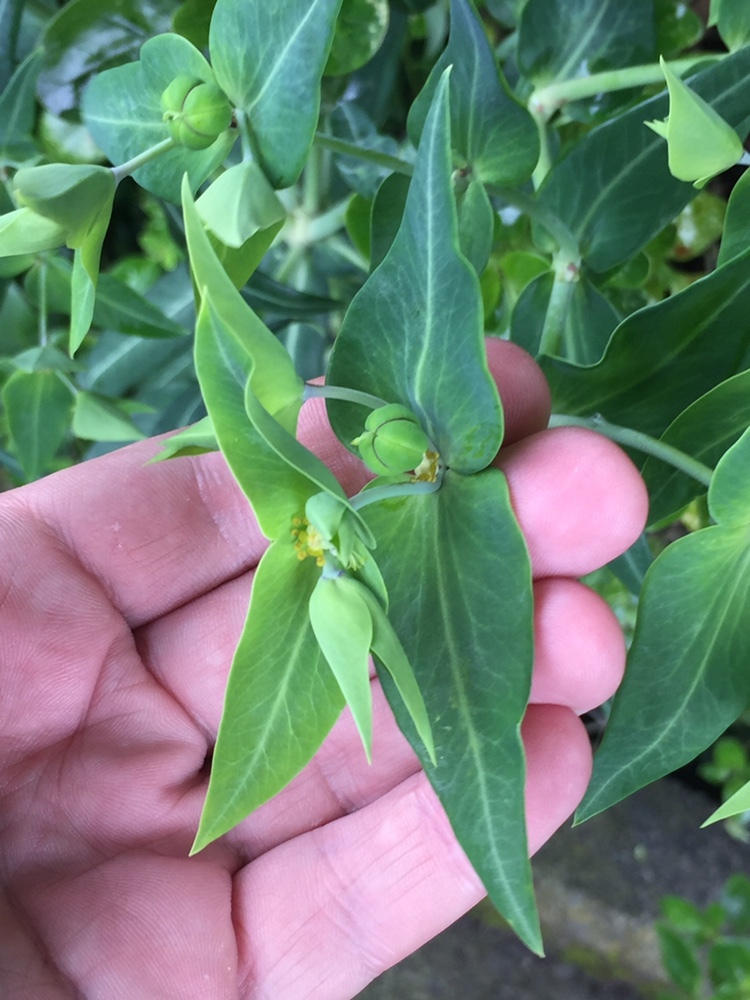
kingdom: Plantae
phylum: Tracheophyta
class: Magnoliopsida
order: Malpighiales
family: Euphorbiaceae
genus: Euphorbia
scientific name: Euphorbia lathyris
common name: Caper spurge
